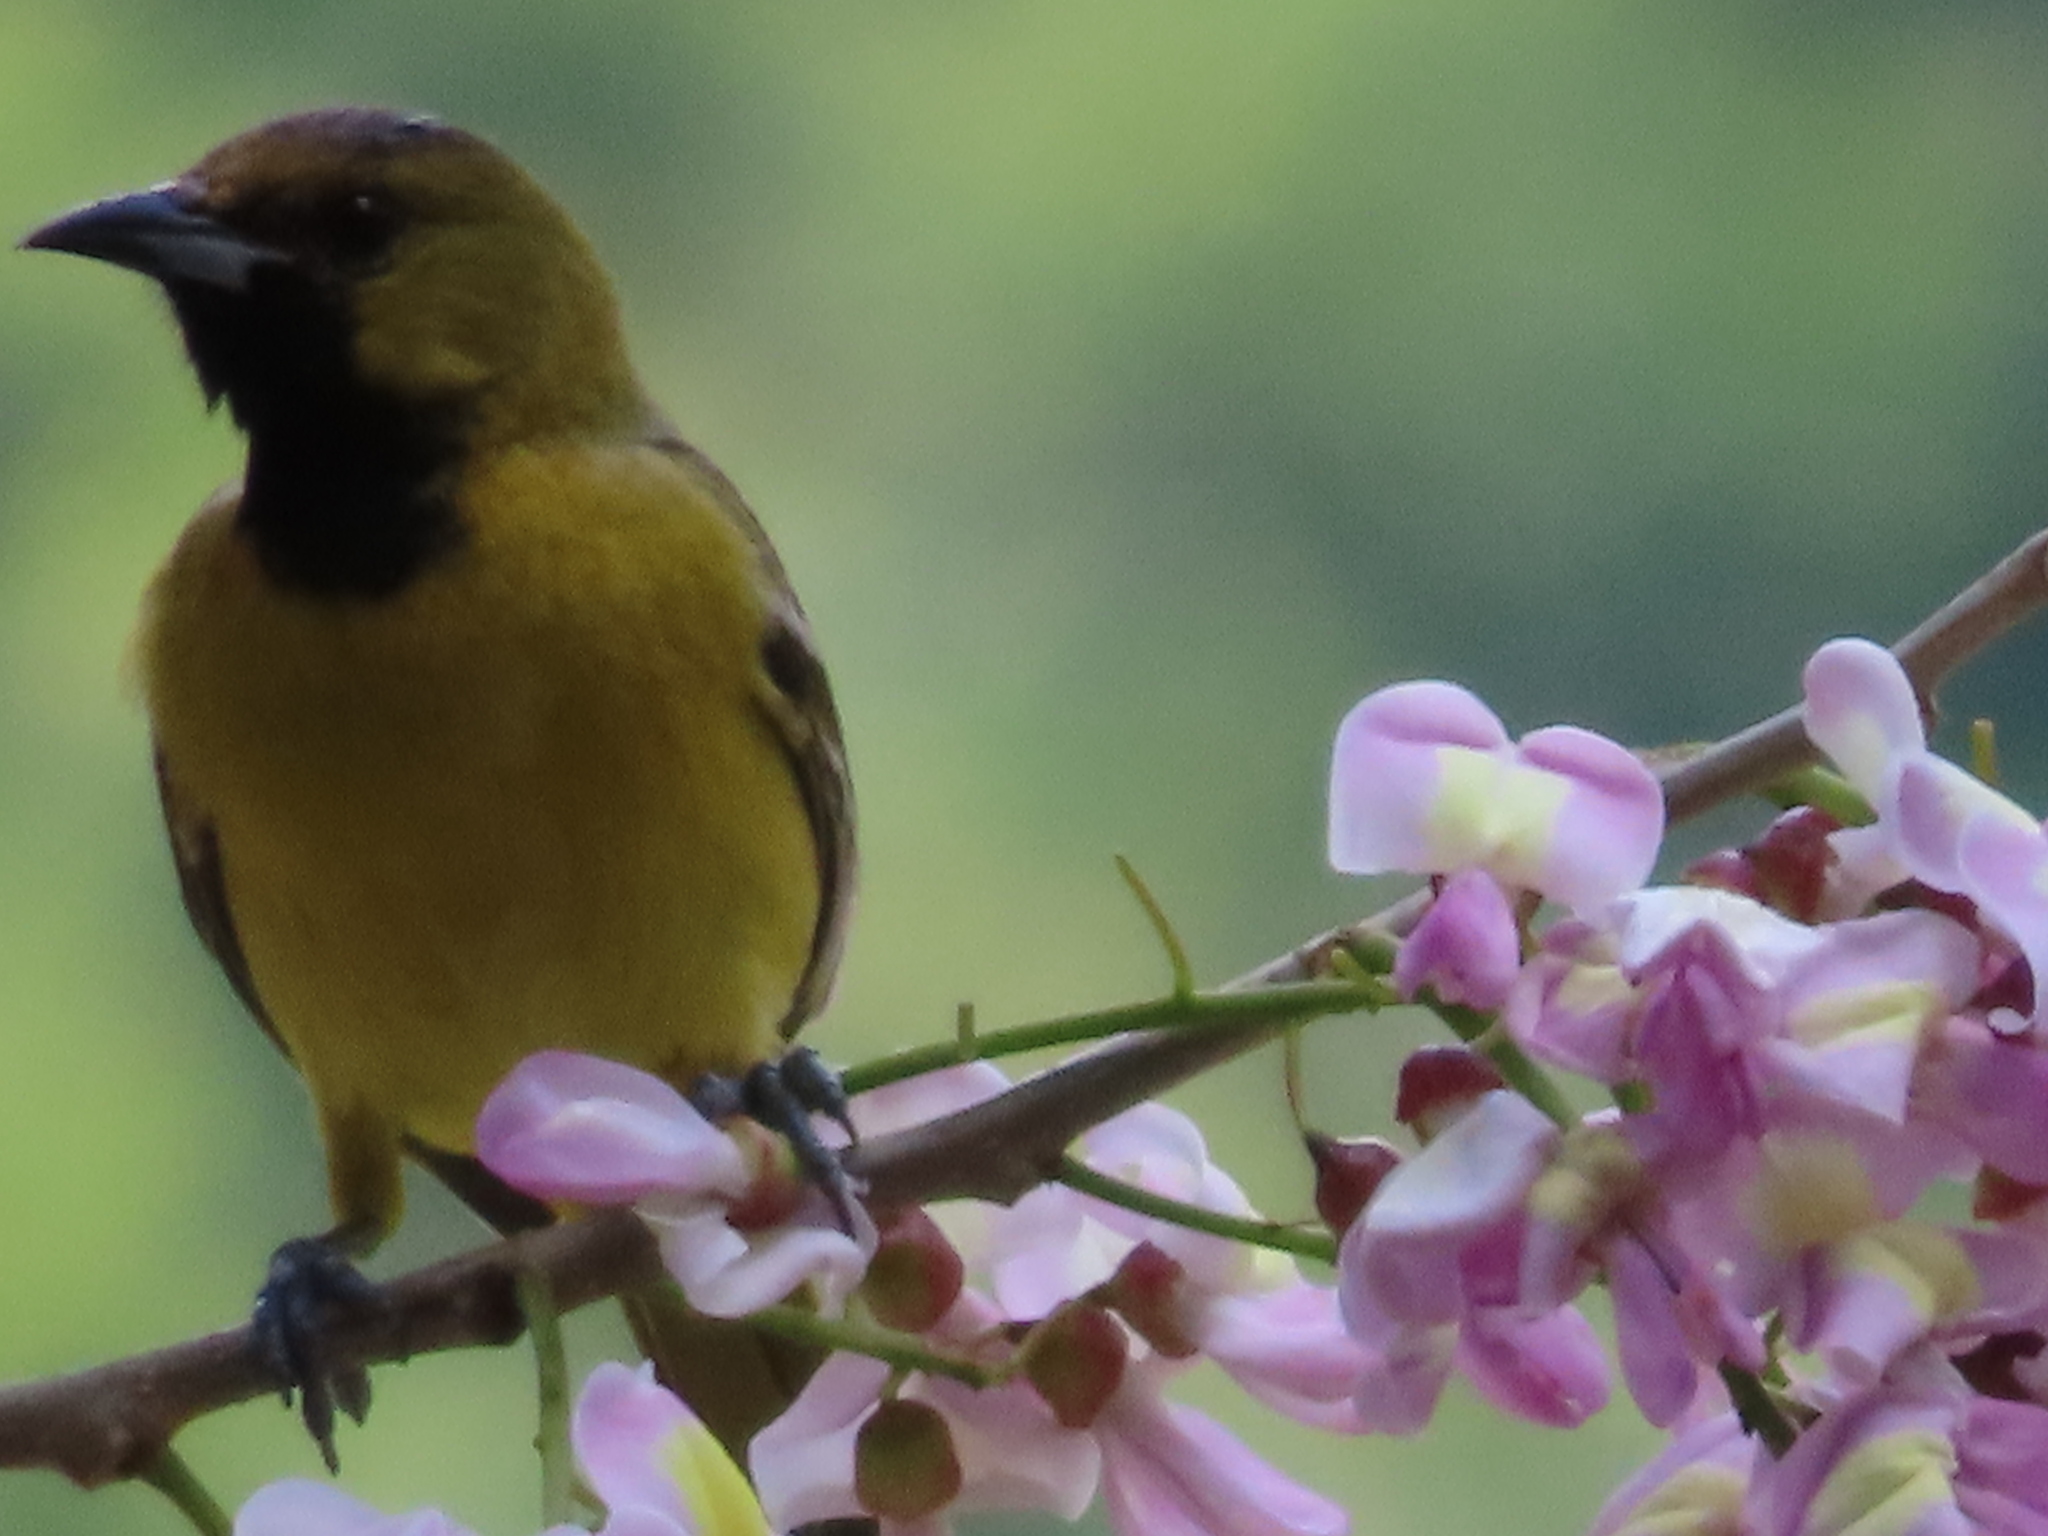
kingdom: Animalia
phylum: Chordata
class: Aves
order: Passeriformes
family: Icteridae
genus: Icterus
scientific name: Icterus spurius
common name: Orchard oriole
